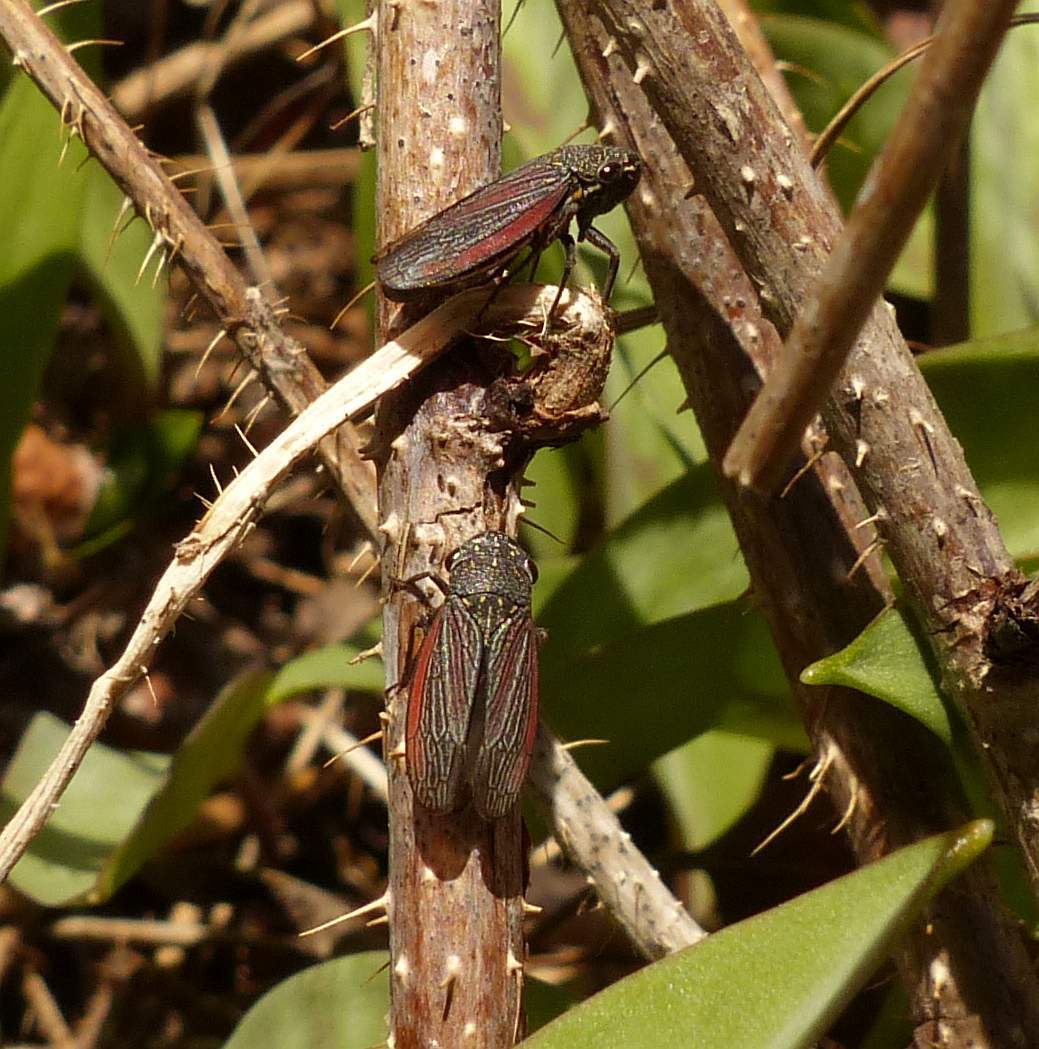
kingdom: Animalia
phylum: Arthropoda
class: Insecta
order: Hemiptera
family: Cicadellidae
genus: Cuerna
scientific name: Cuerna striata
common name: Striped leafhopper
